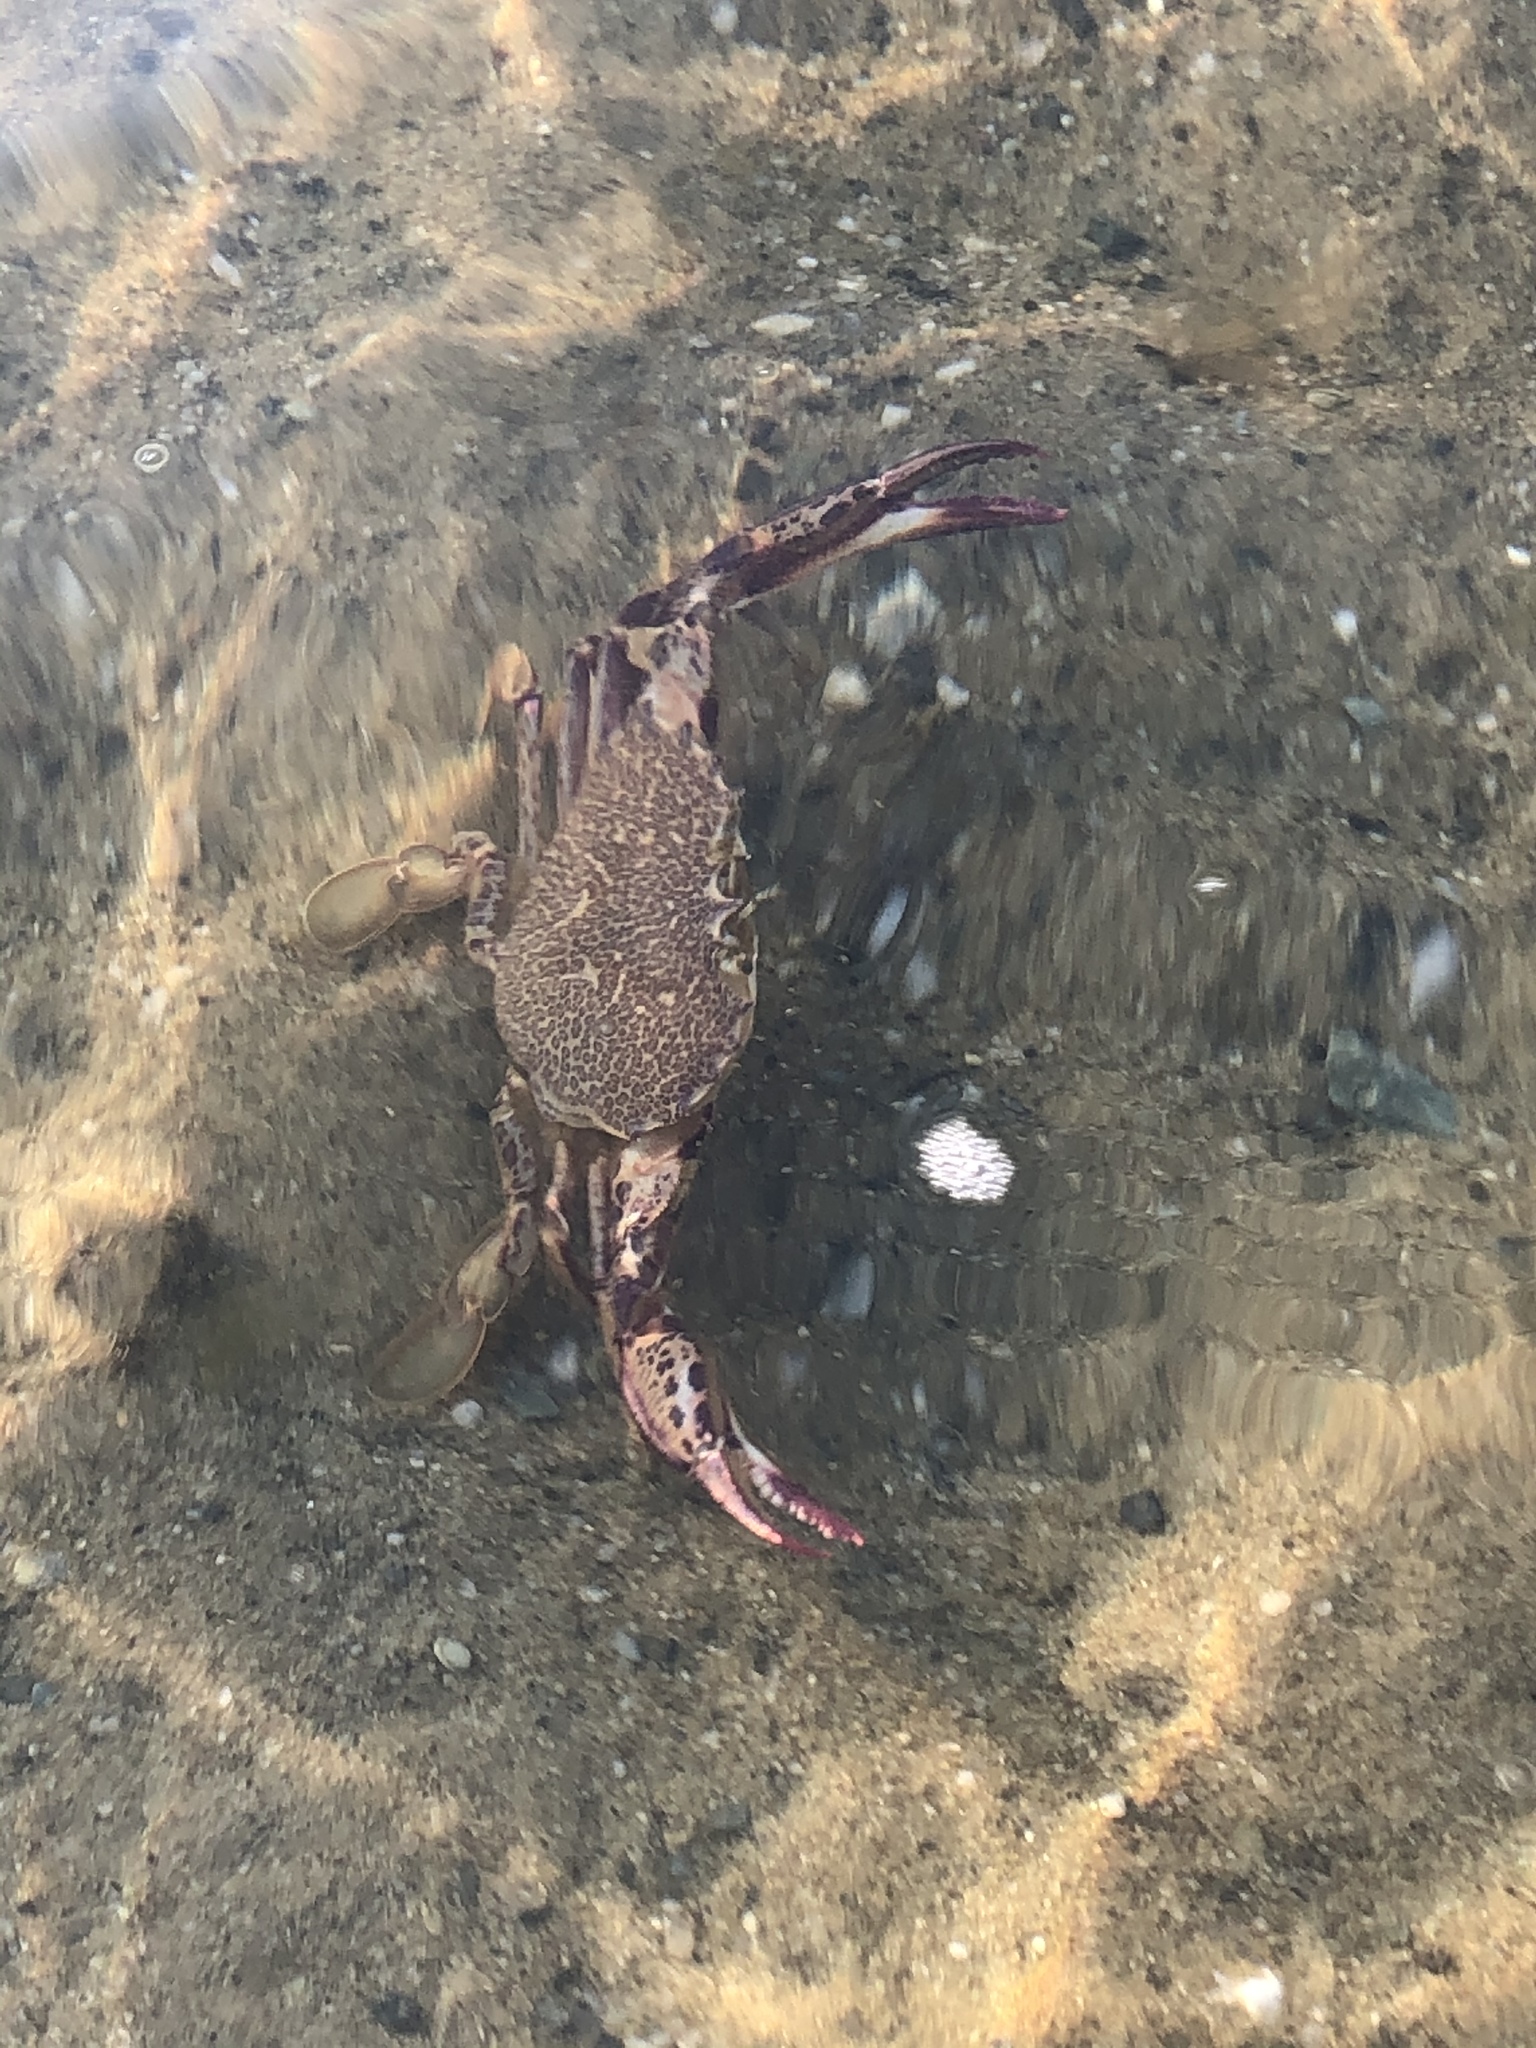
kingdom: Animalia
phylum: Arthropoda
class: Malacostraca
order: Decapoda
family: Ovalipidae
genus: Ovalipes
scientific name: Ovalipes ocellatus
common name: Lady crab
